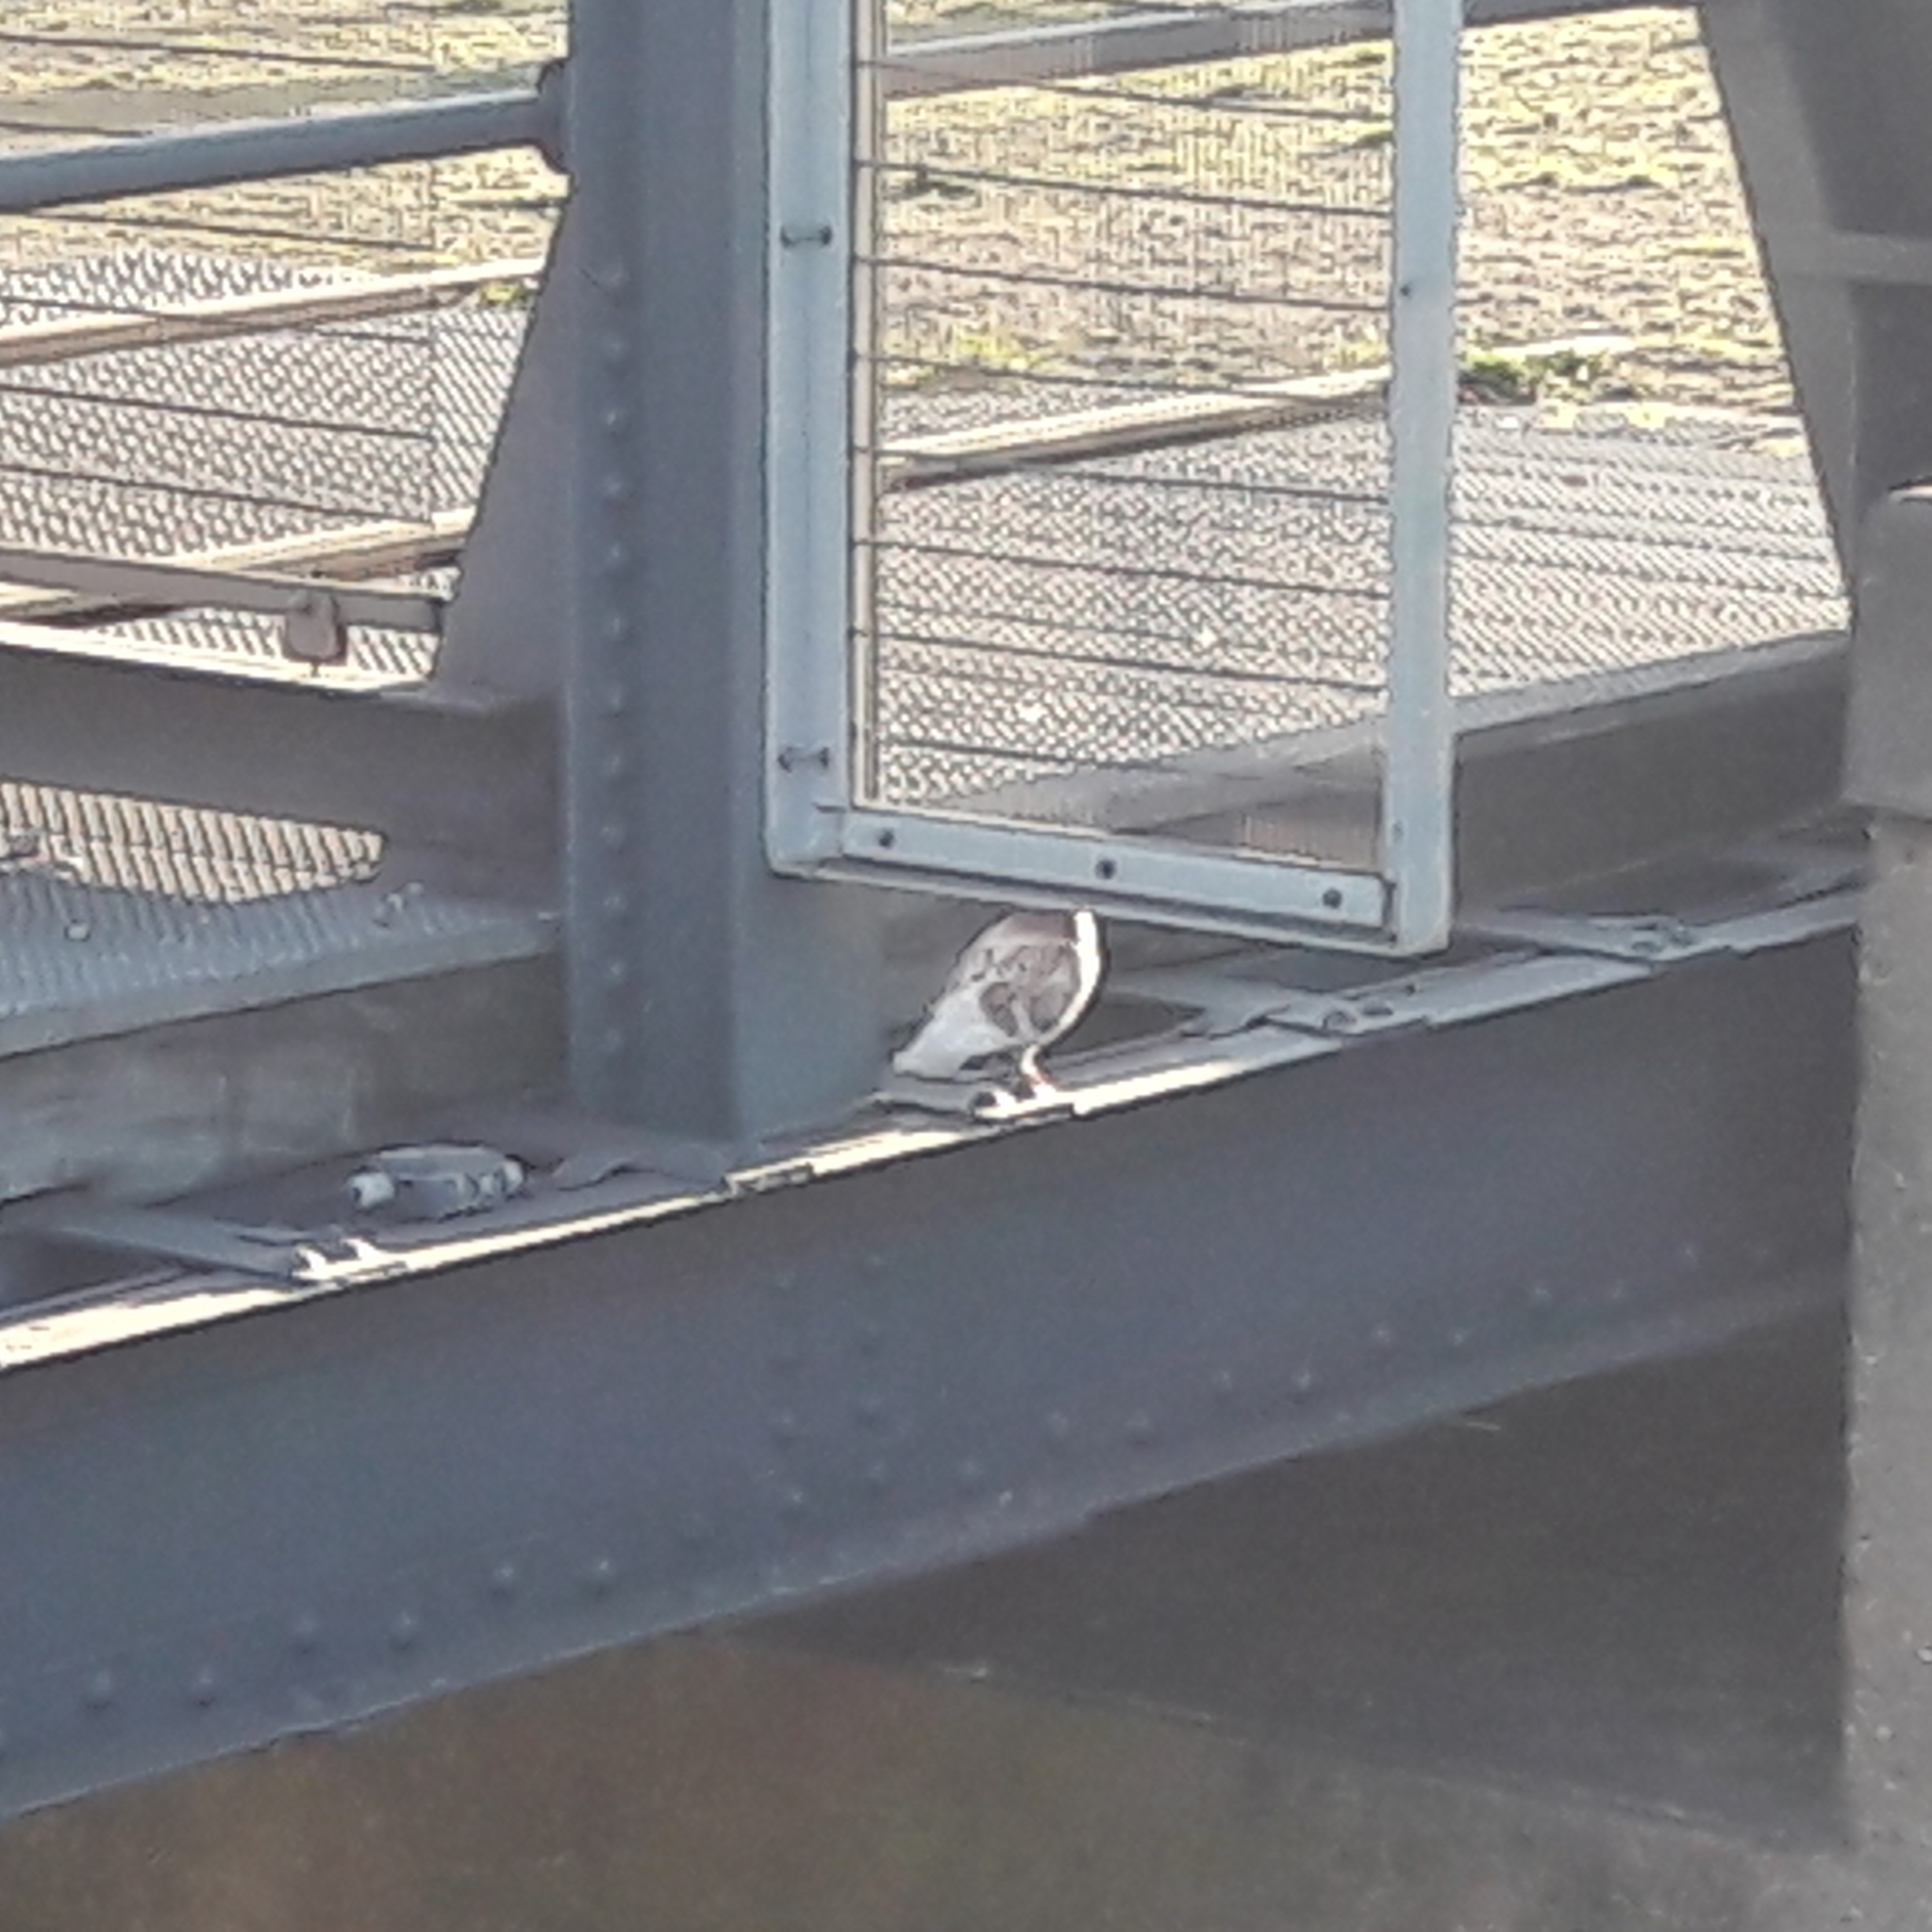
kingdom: Animalia
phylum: Chordata
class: Aves
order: Columbiformes
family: Columbidae
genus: Columba
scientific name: Columba livia
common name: Rock pigeon
